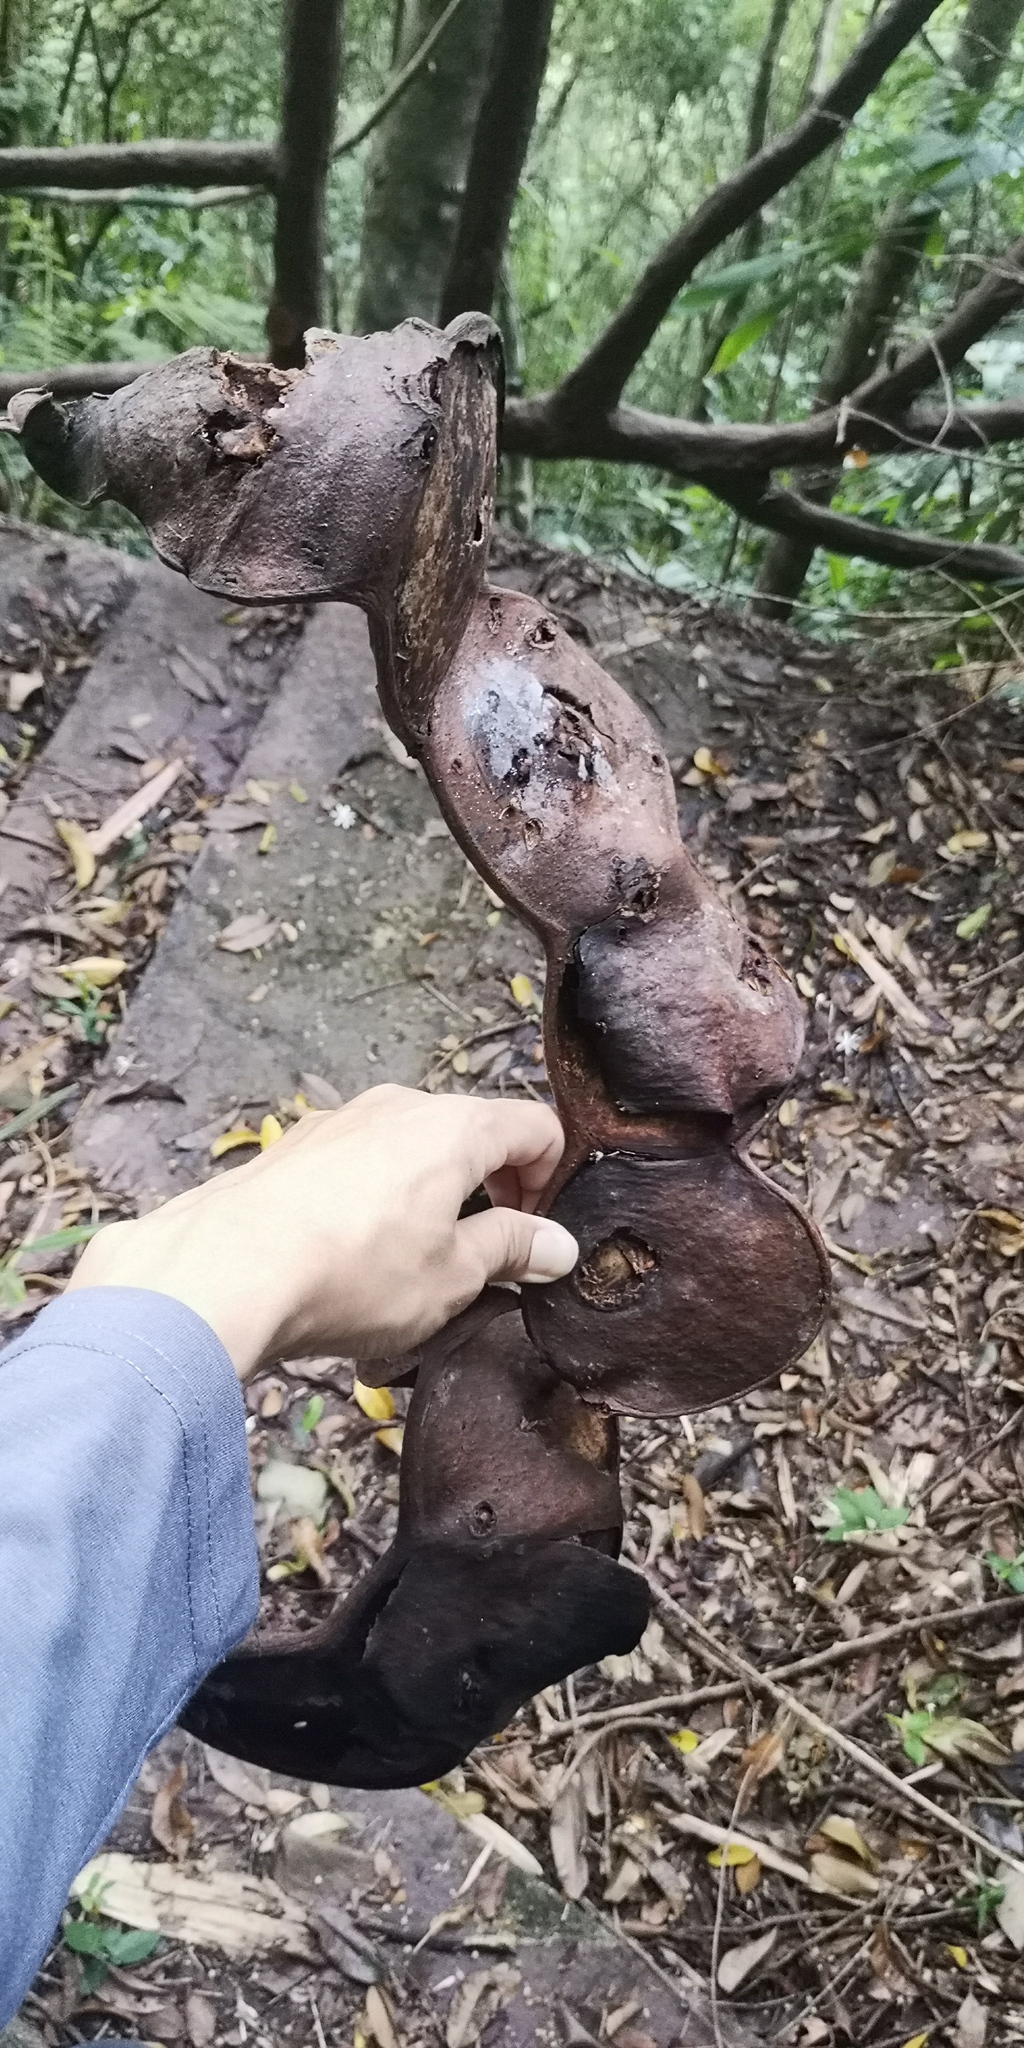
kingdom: Plantae
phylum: Tracheophyta
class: Magnoliopsida
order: Fabales
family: Fabaceae
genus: Entada
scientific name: Entada phaseoloides
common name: Matchbox-bean
